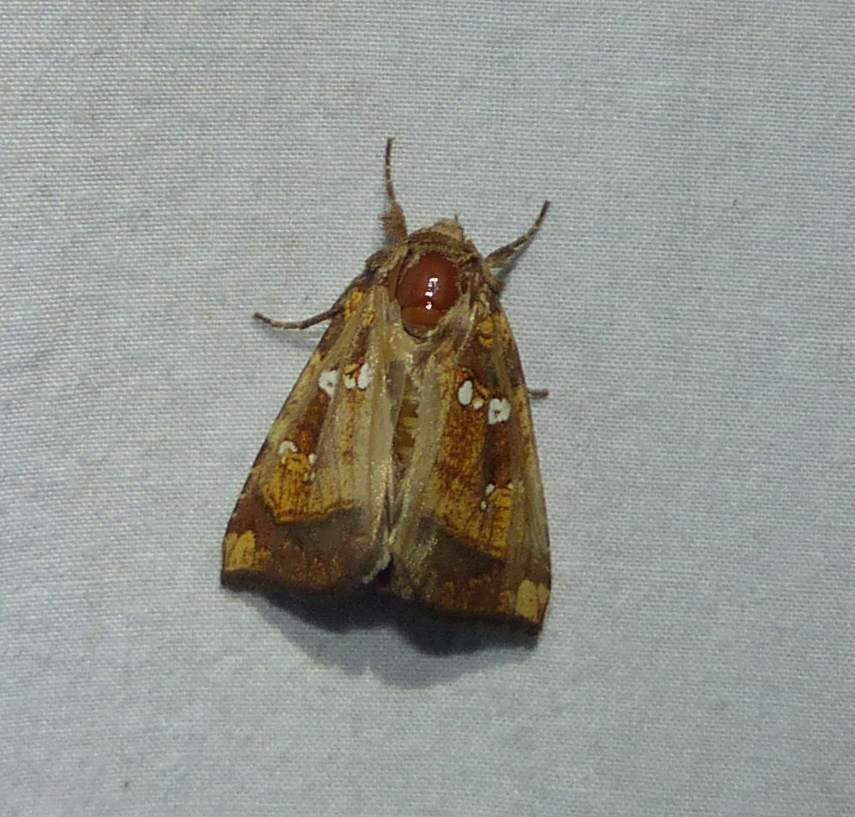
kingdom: Animalia
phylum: Arthropoda
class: Insecta
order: Lepidoptera
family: Noctuidae
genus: Papaipema
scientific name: Papaipema arctivorens
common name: Northern burdock borer moth
